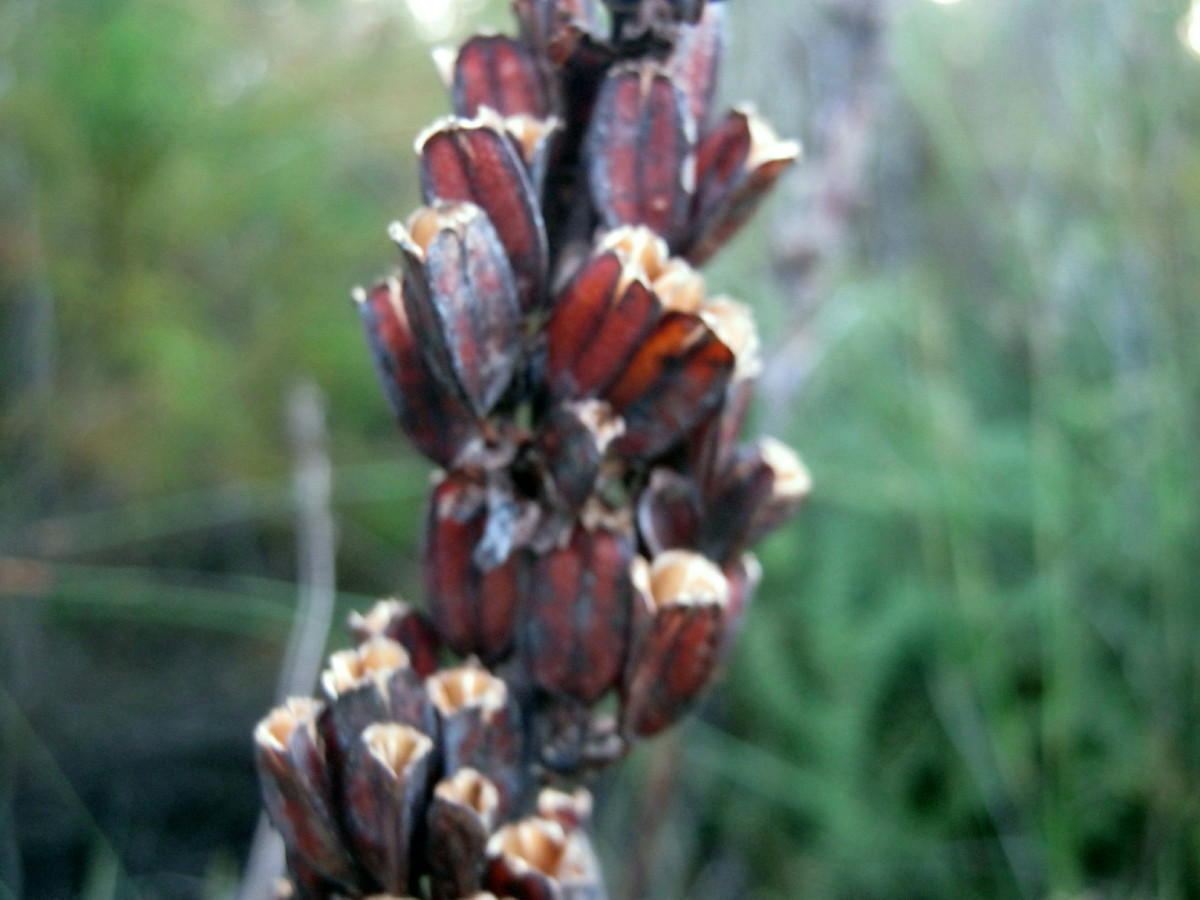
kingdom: Plantae
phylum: Tracheophyta
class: Liliopsida
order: Asparagales
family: Iridaceae
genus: Aristea
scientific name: Aristea bakeri
